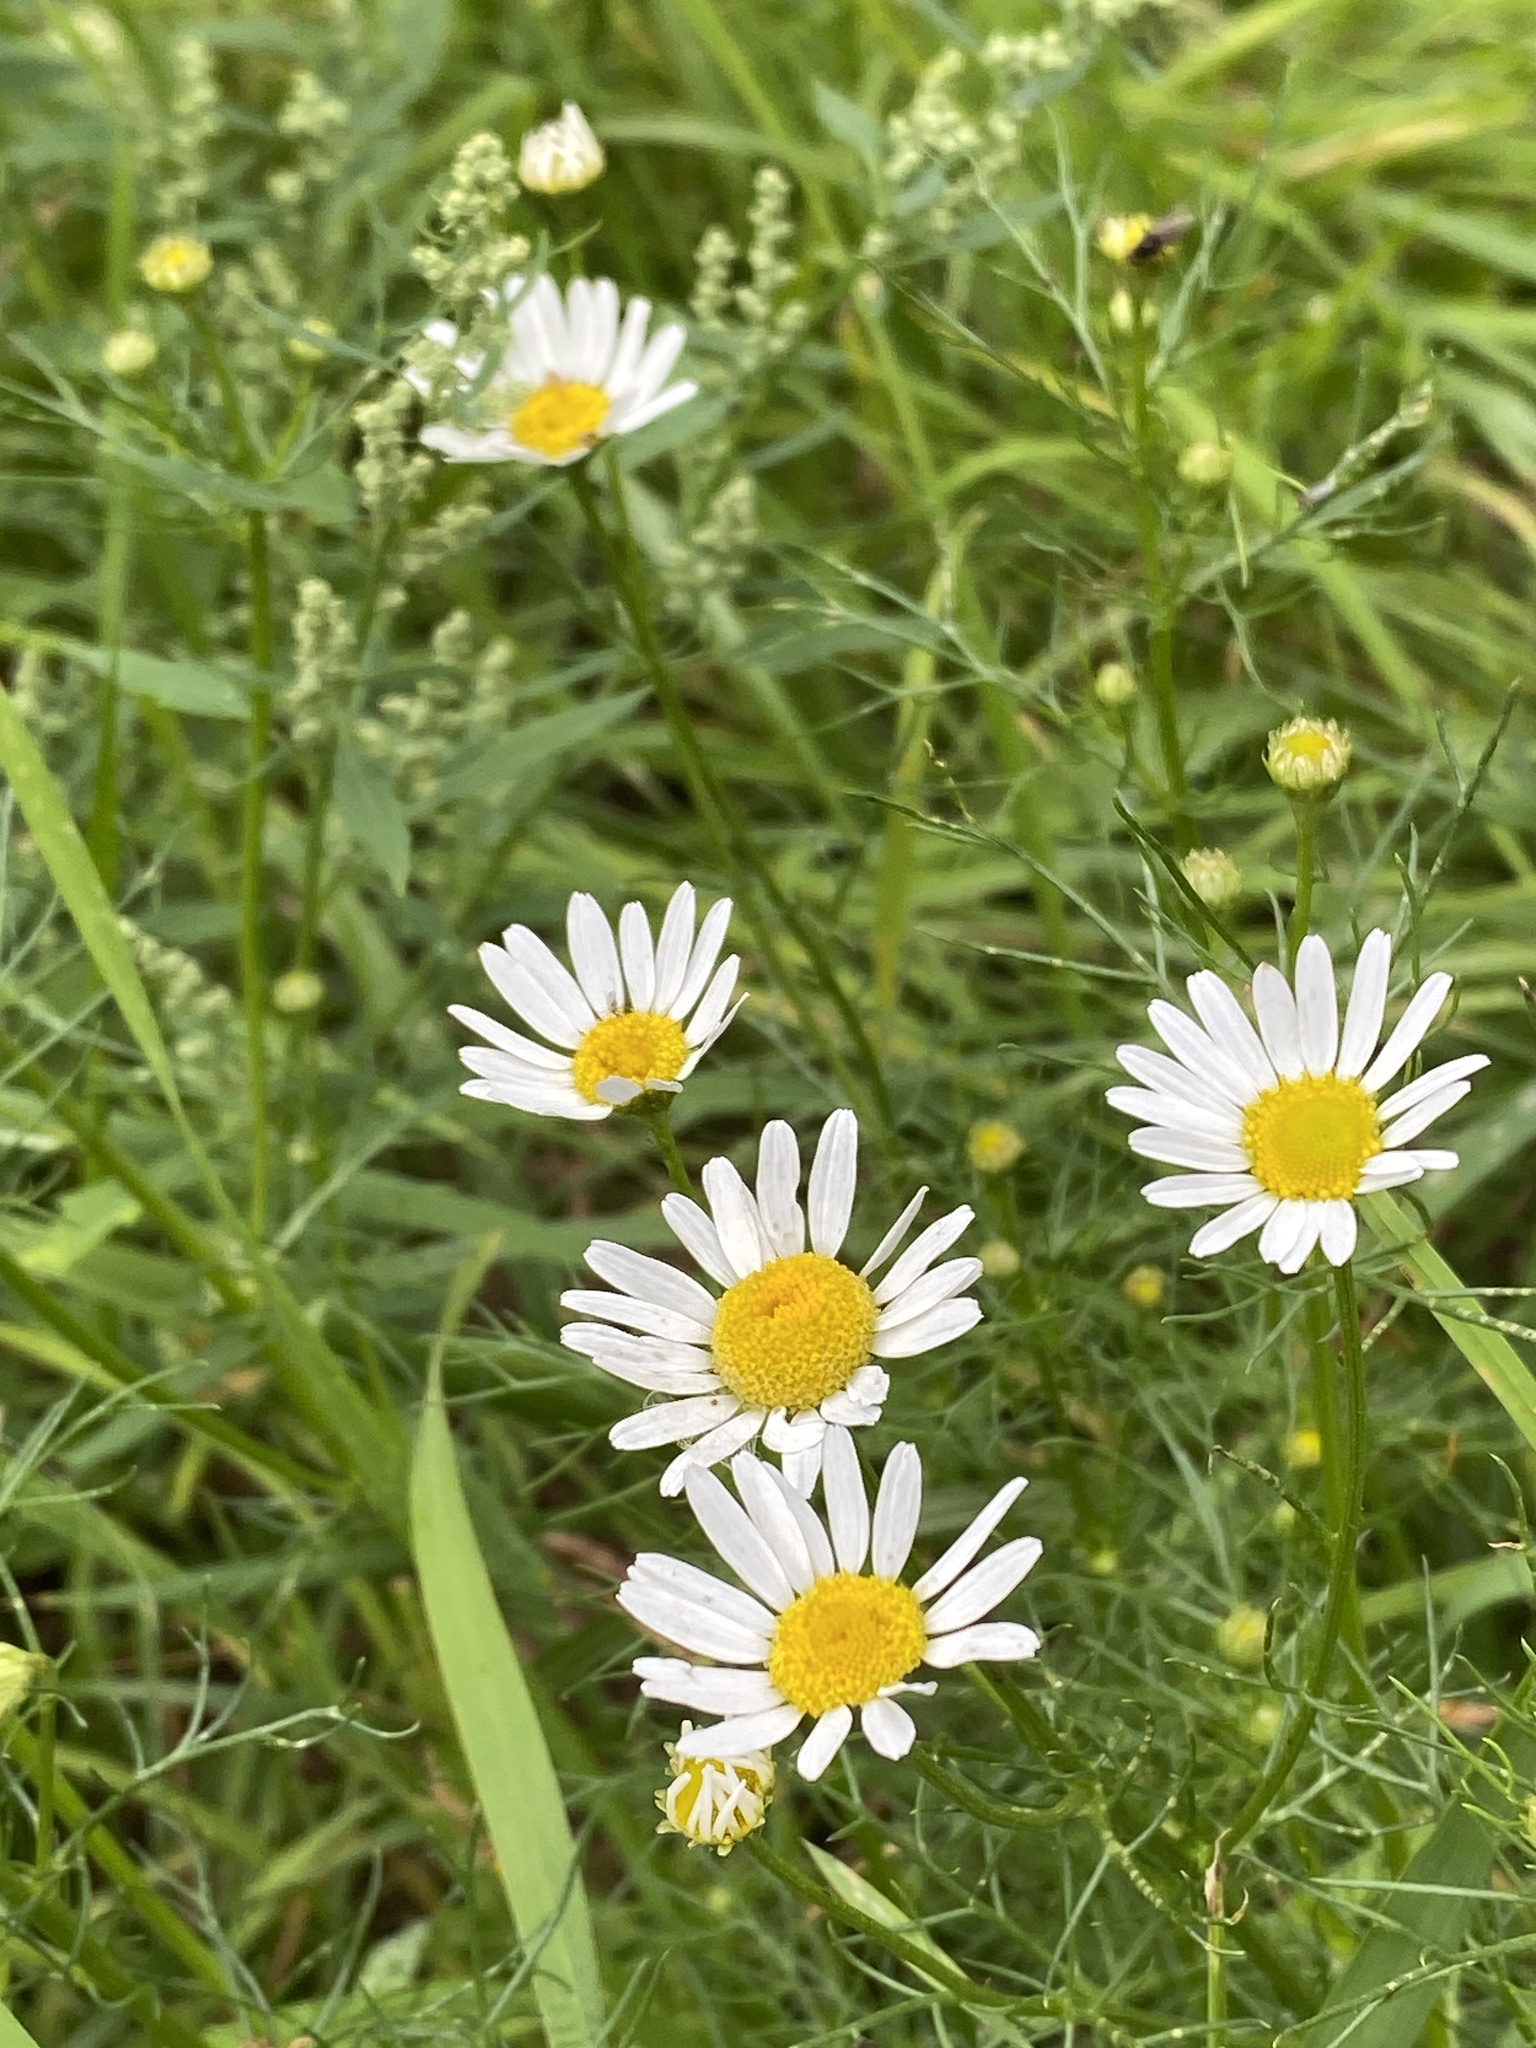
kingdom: Plantae
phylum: Tracheophyta
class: Magnoliopsida
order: Asterales
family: Asteraceae
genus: Tripleurospermum
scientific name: Tripleurospermum inodorum
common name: Scentless mayweed
